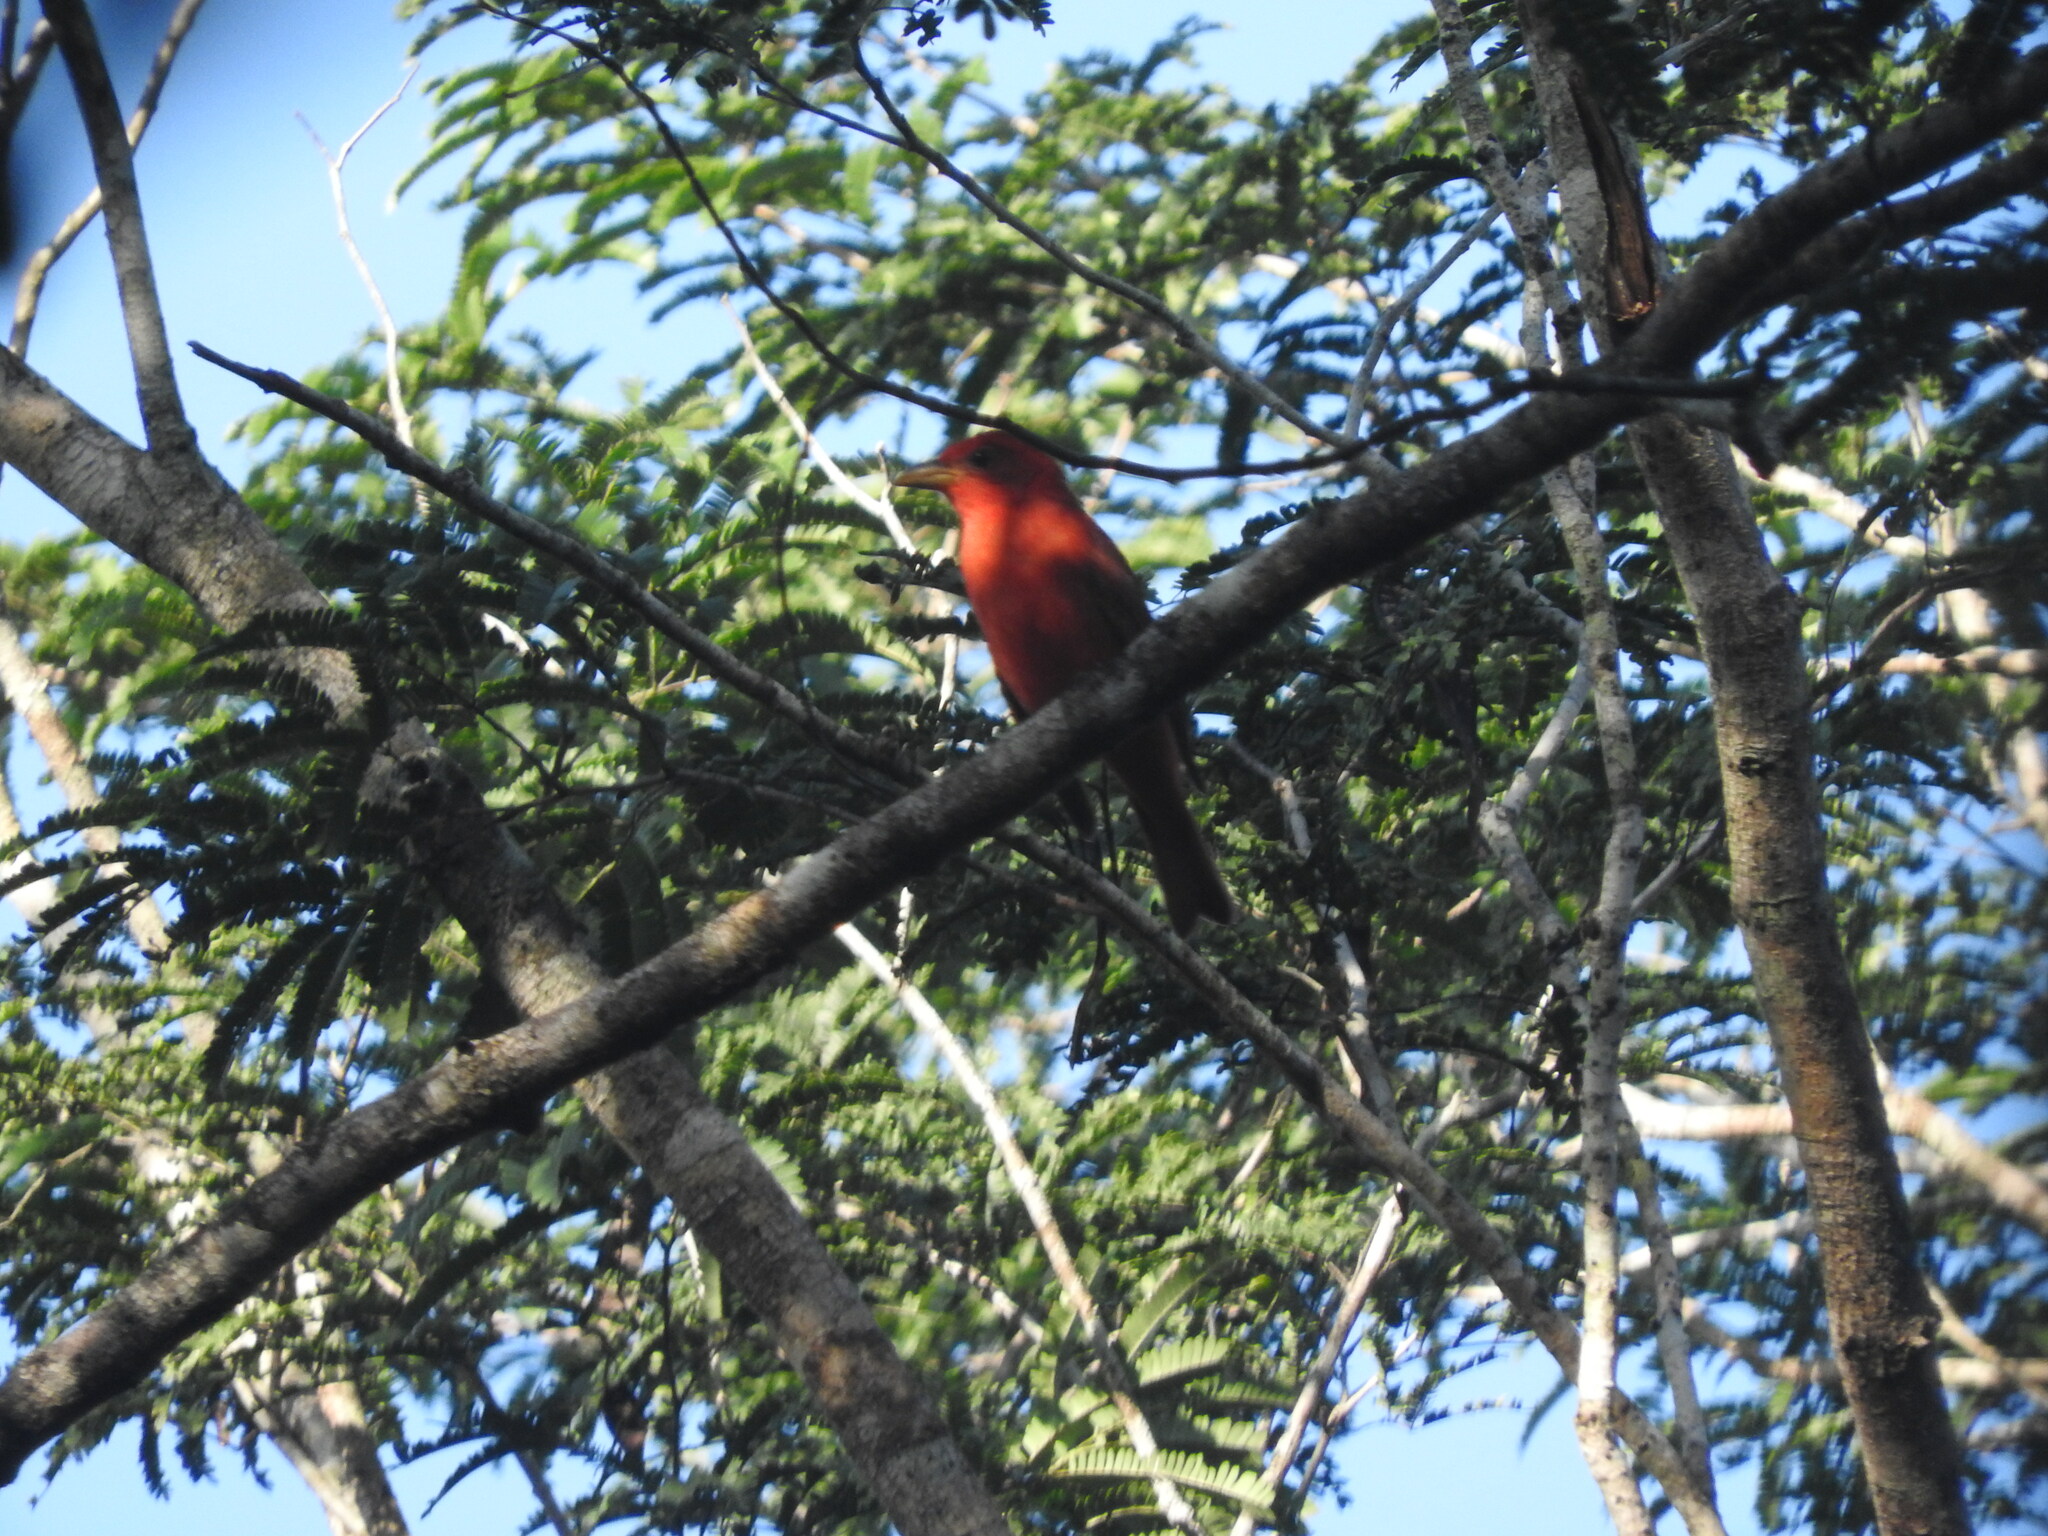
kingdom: Animalia
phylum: Chordata
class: Aves
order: Passeriformes
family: Cardinalidae
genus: Piranga
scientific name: Piranga rubra
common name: Summer tanager
